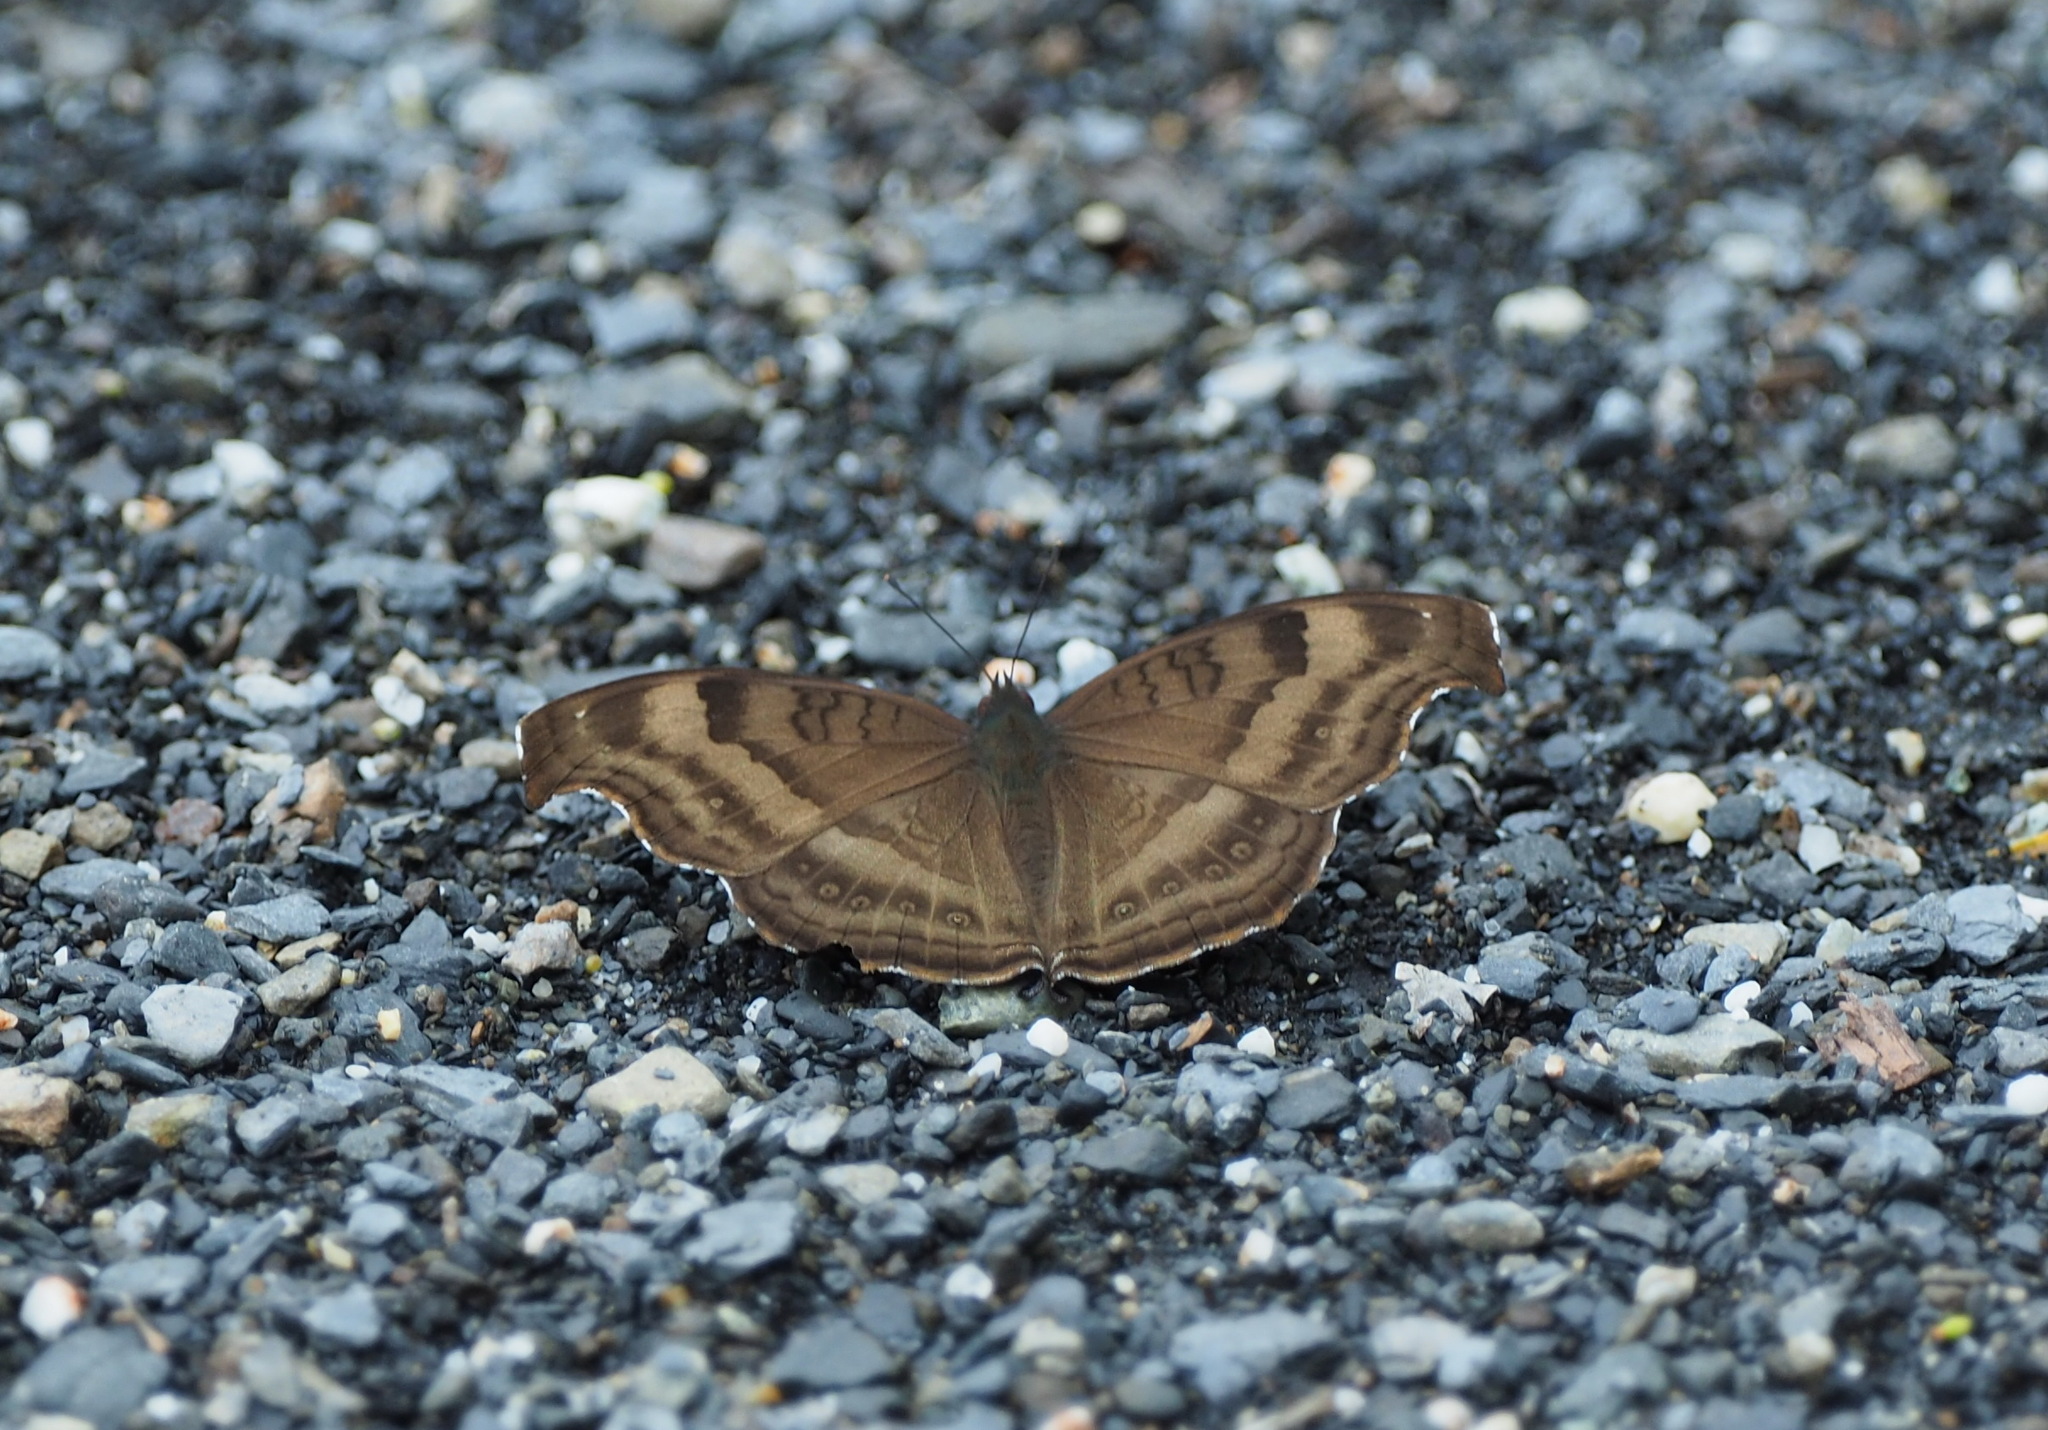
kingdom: Animalia
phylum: Arthropoda
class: Insecta
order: Lepidoptera
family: Nymphalidae
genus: Junonia
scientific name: Junonia iphita
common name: Chocolate pansy
